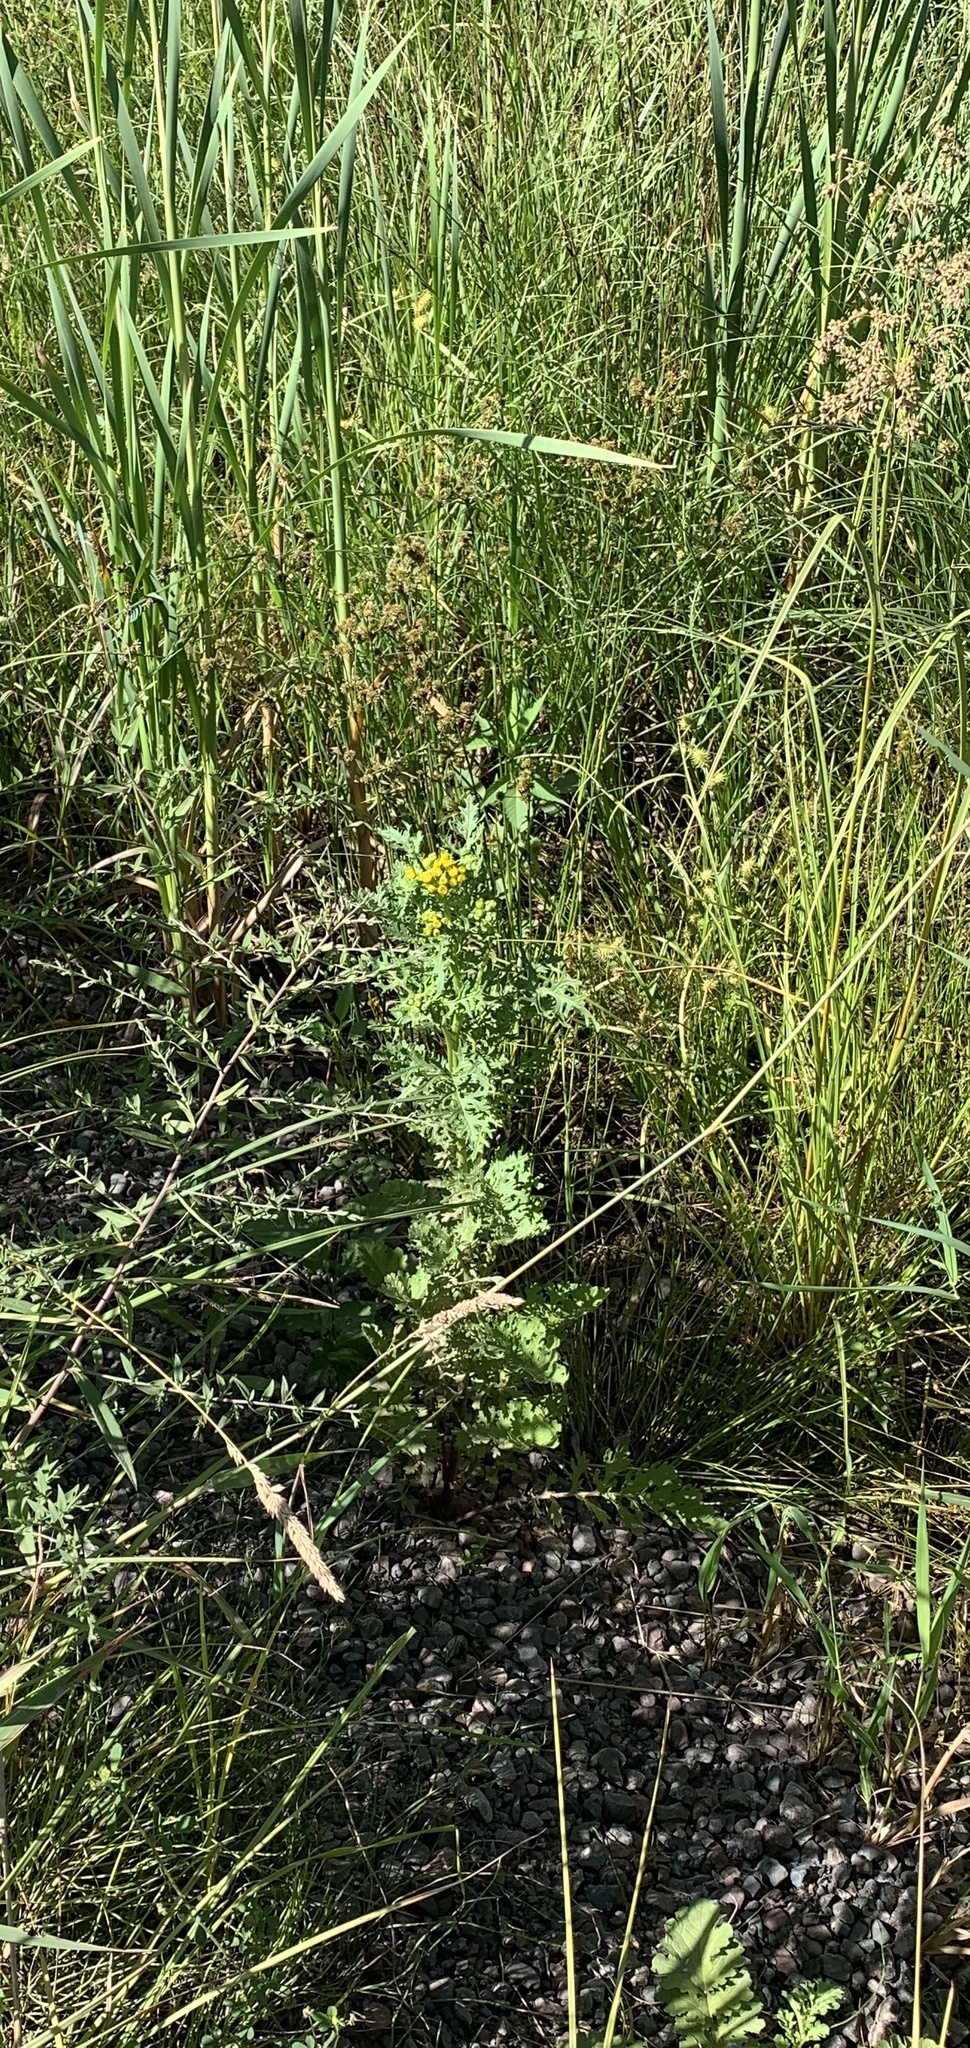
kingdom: Plantae
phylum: Tracheophyta
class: Magnoliopsida
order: Asterales
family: Asteraceae
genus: Jacobaea
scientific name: Jacobaea vulgaris
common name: Stinking willie
